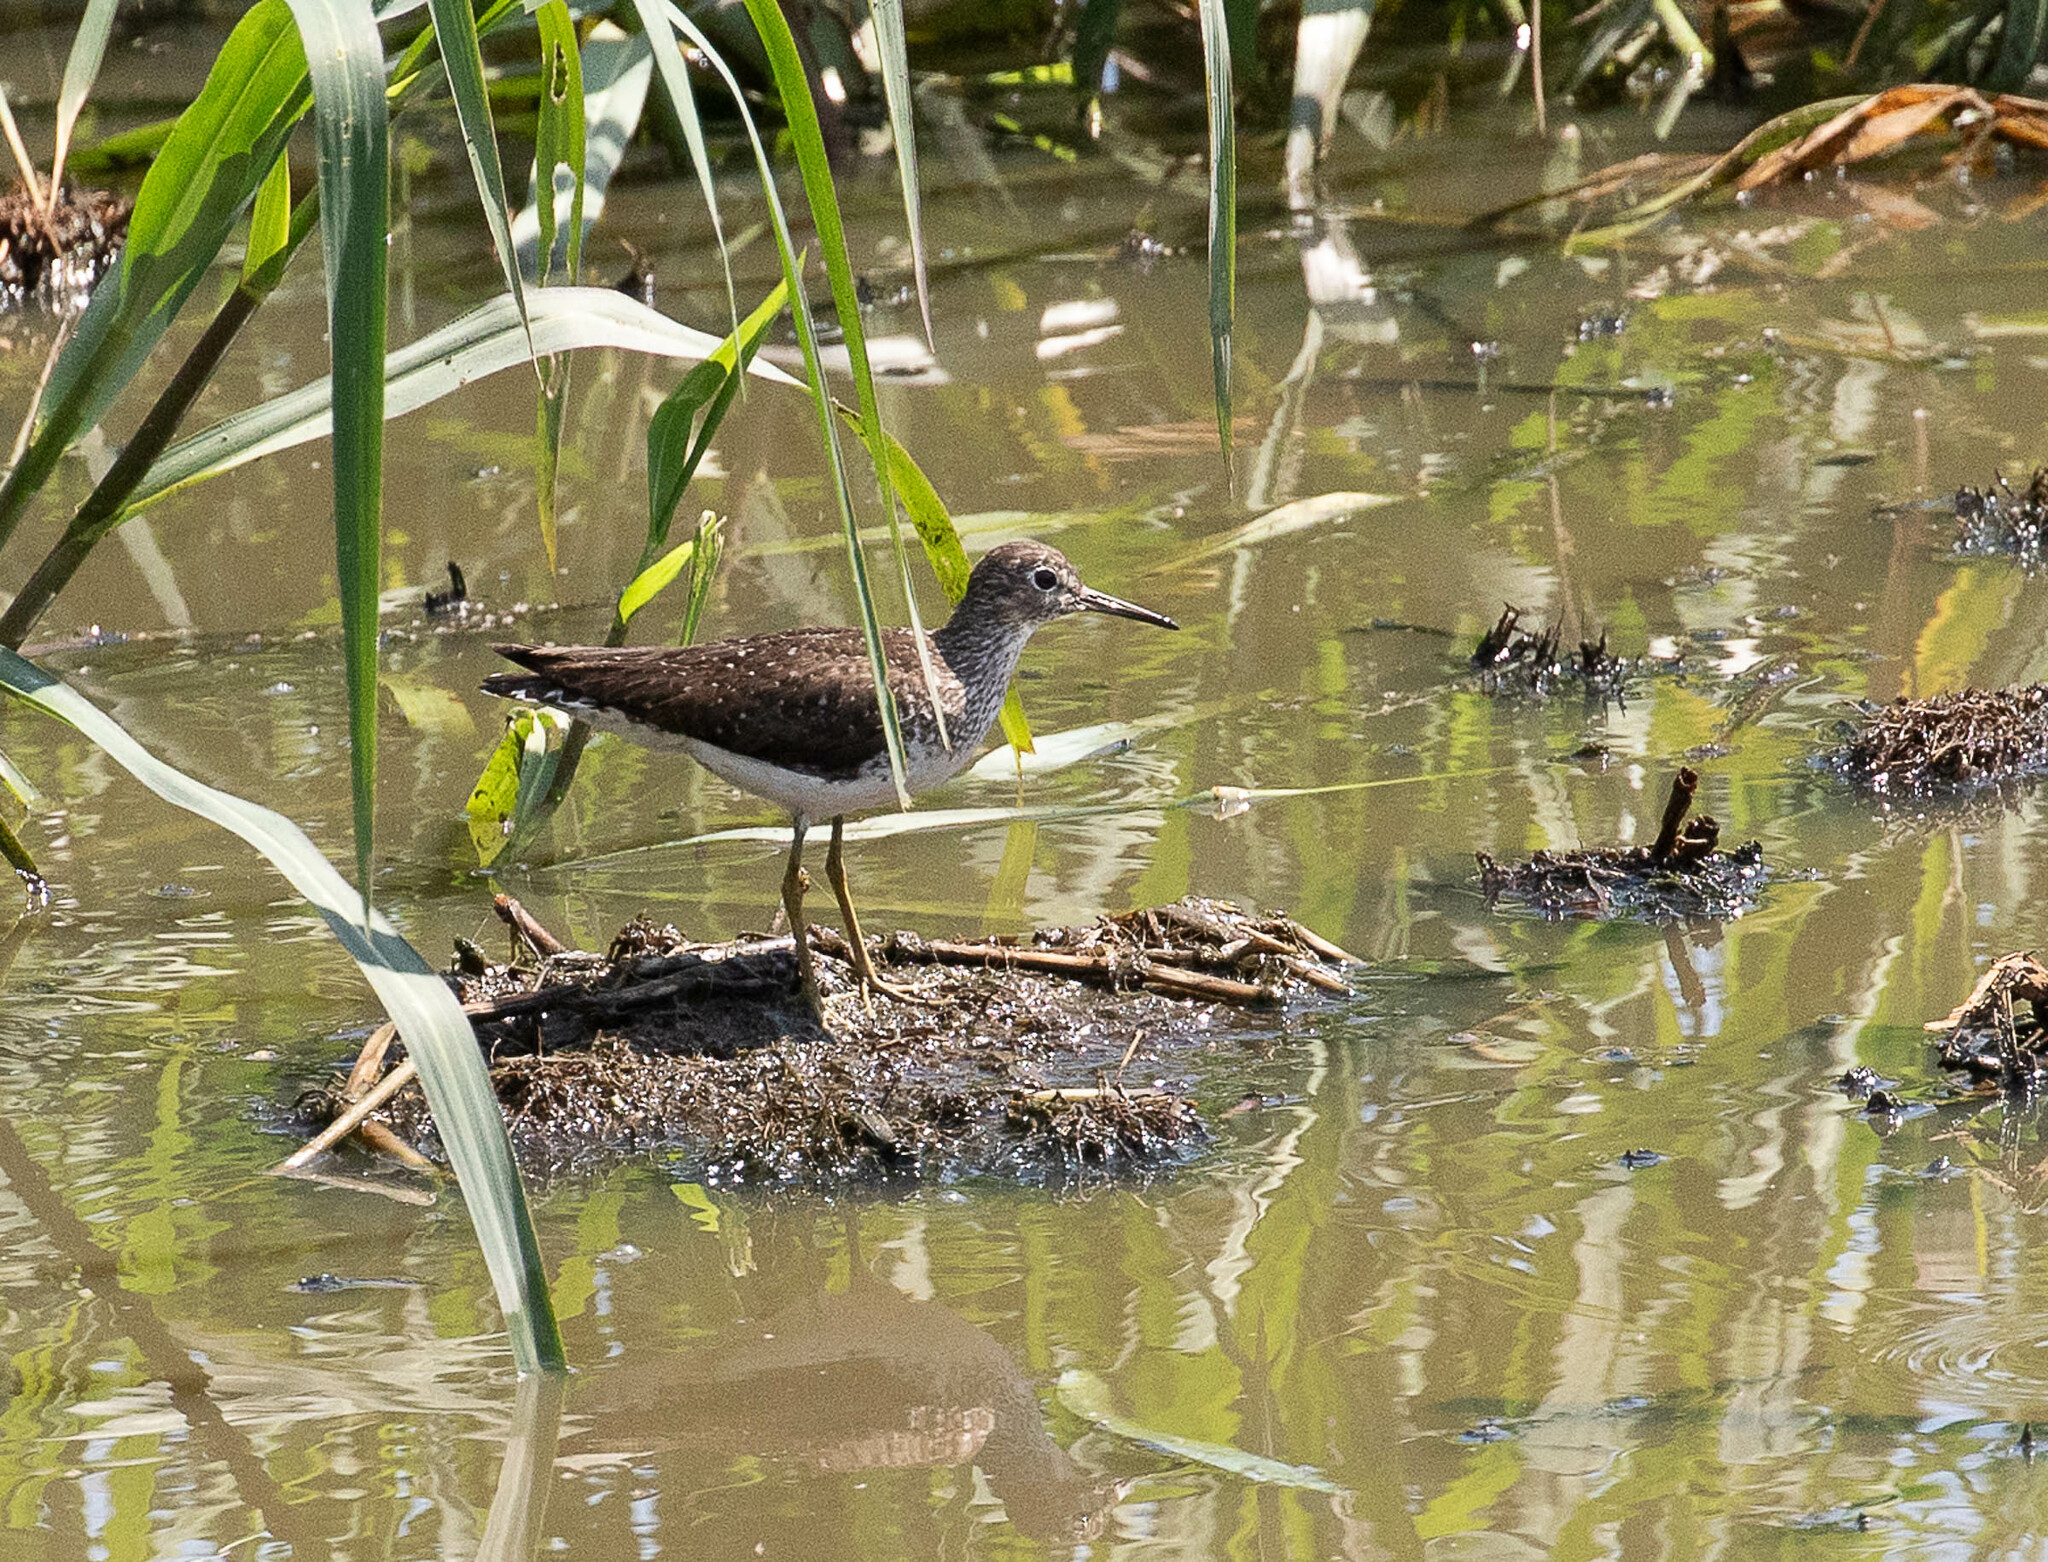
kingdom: Animalia
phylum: Chordata
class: Aves
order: Charadriiformes
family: Scolopacidae
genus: Tringa
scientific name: Tringa solitaria
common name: Solitary sandpiper
